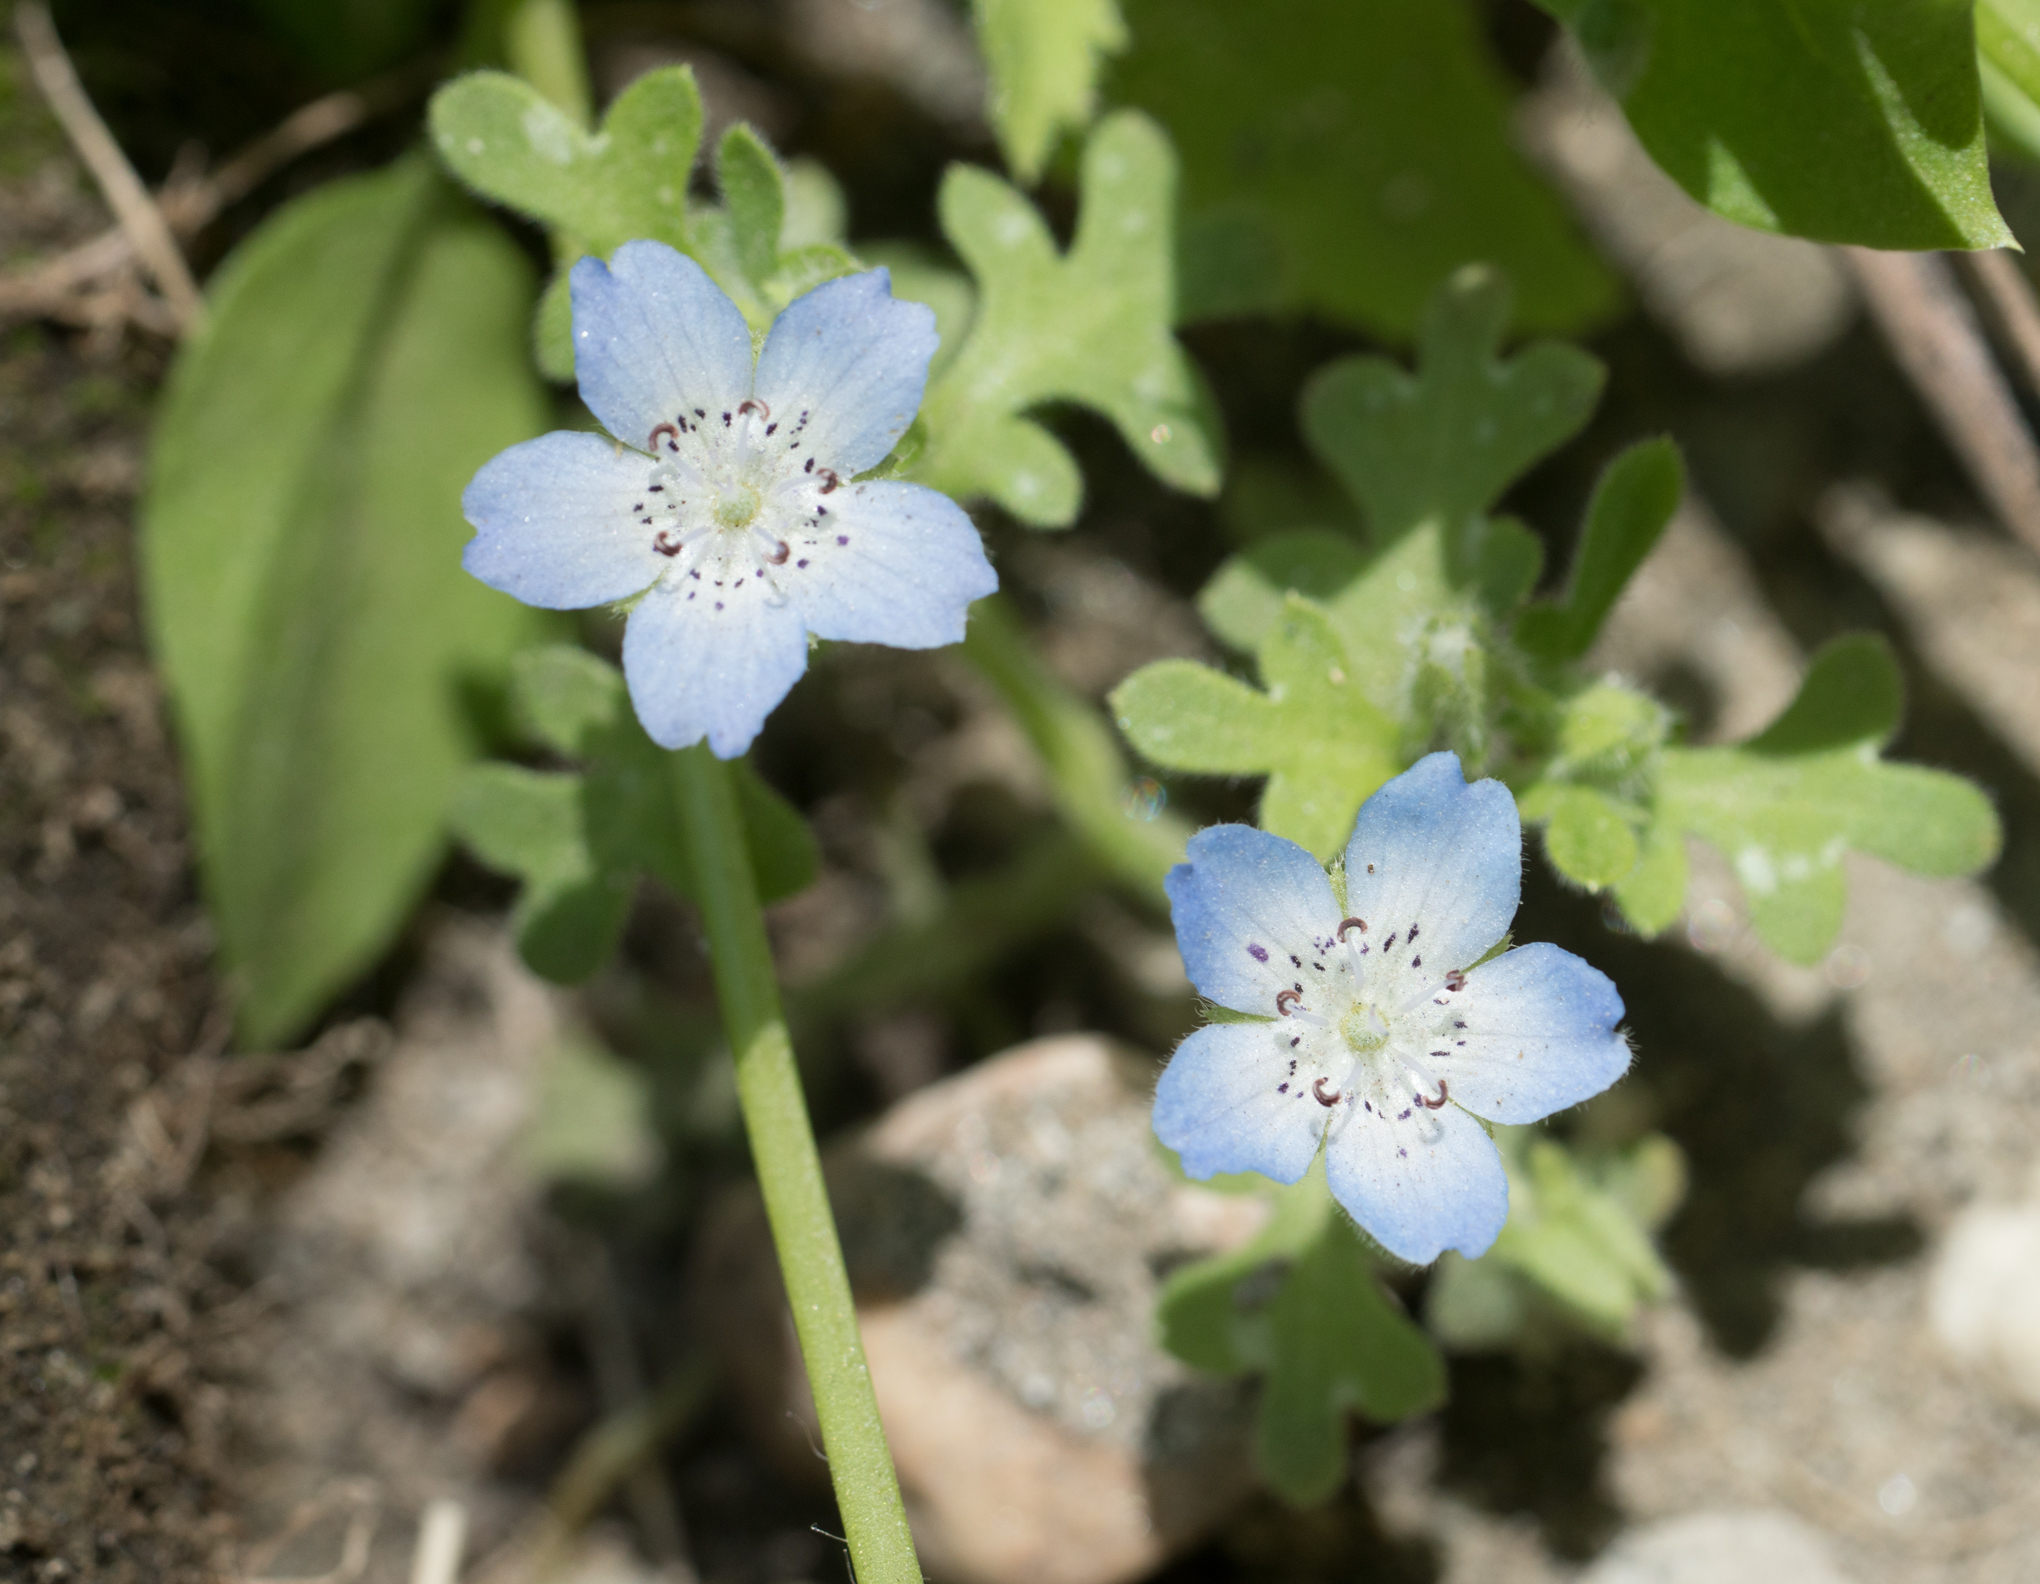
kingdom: Plantae
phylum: Tracheophyta
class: Magnoliopsida
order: Boraginales
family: Hydrophyllaceae
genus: Nemophila
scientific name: Nemophila menziesii
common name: Baby's-blue-eyes
